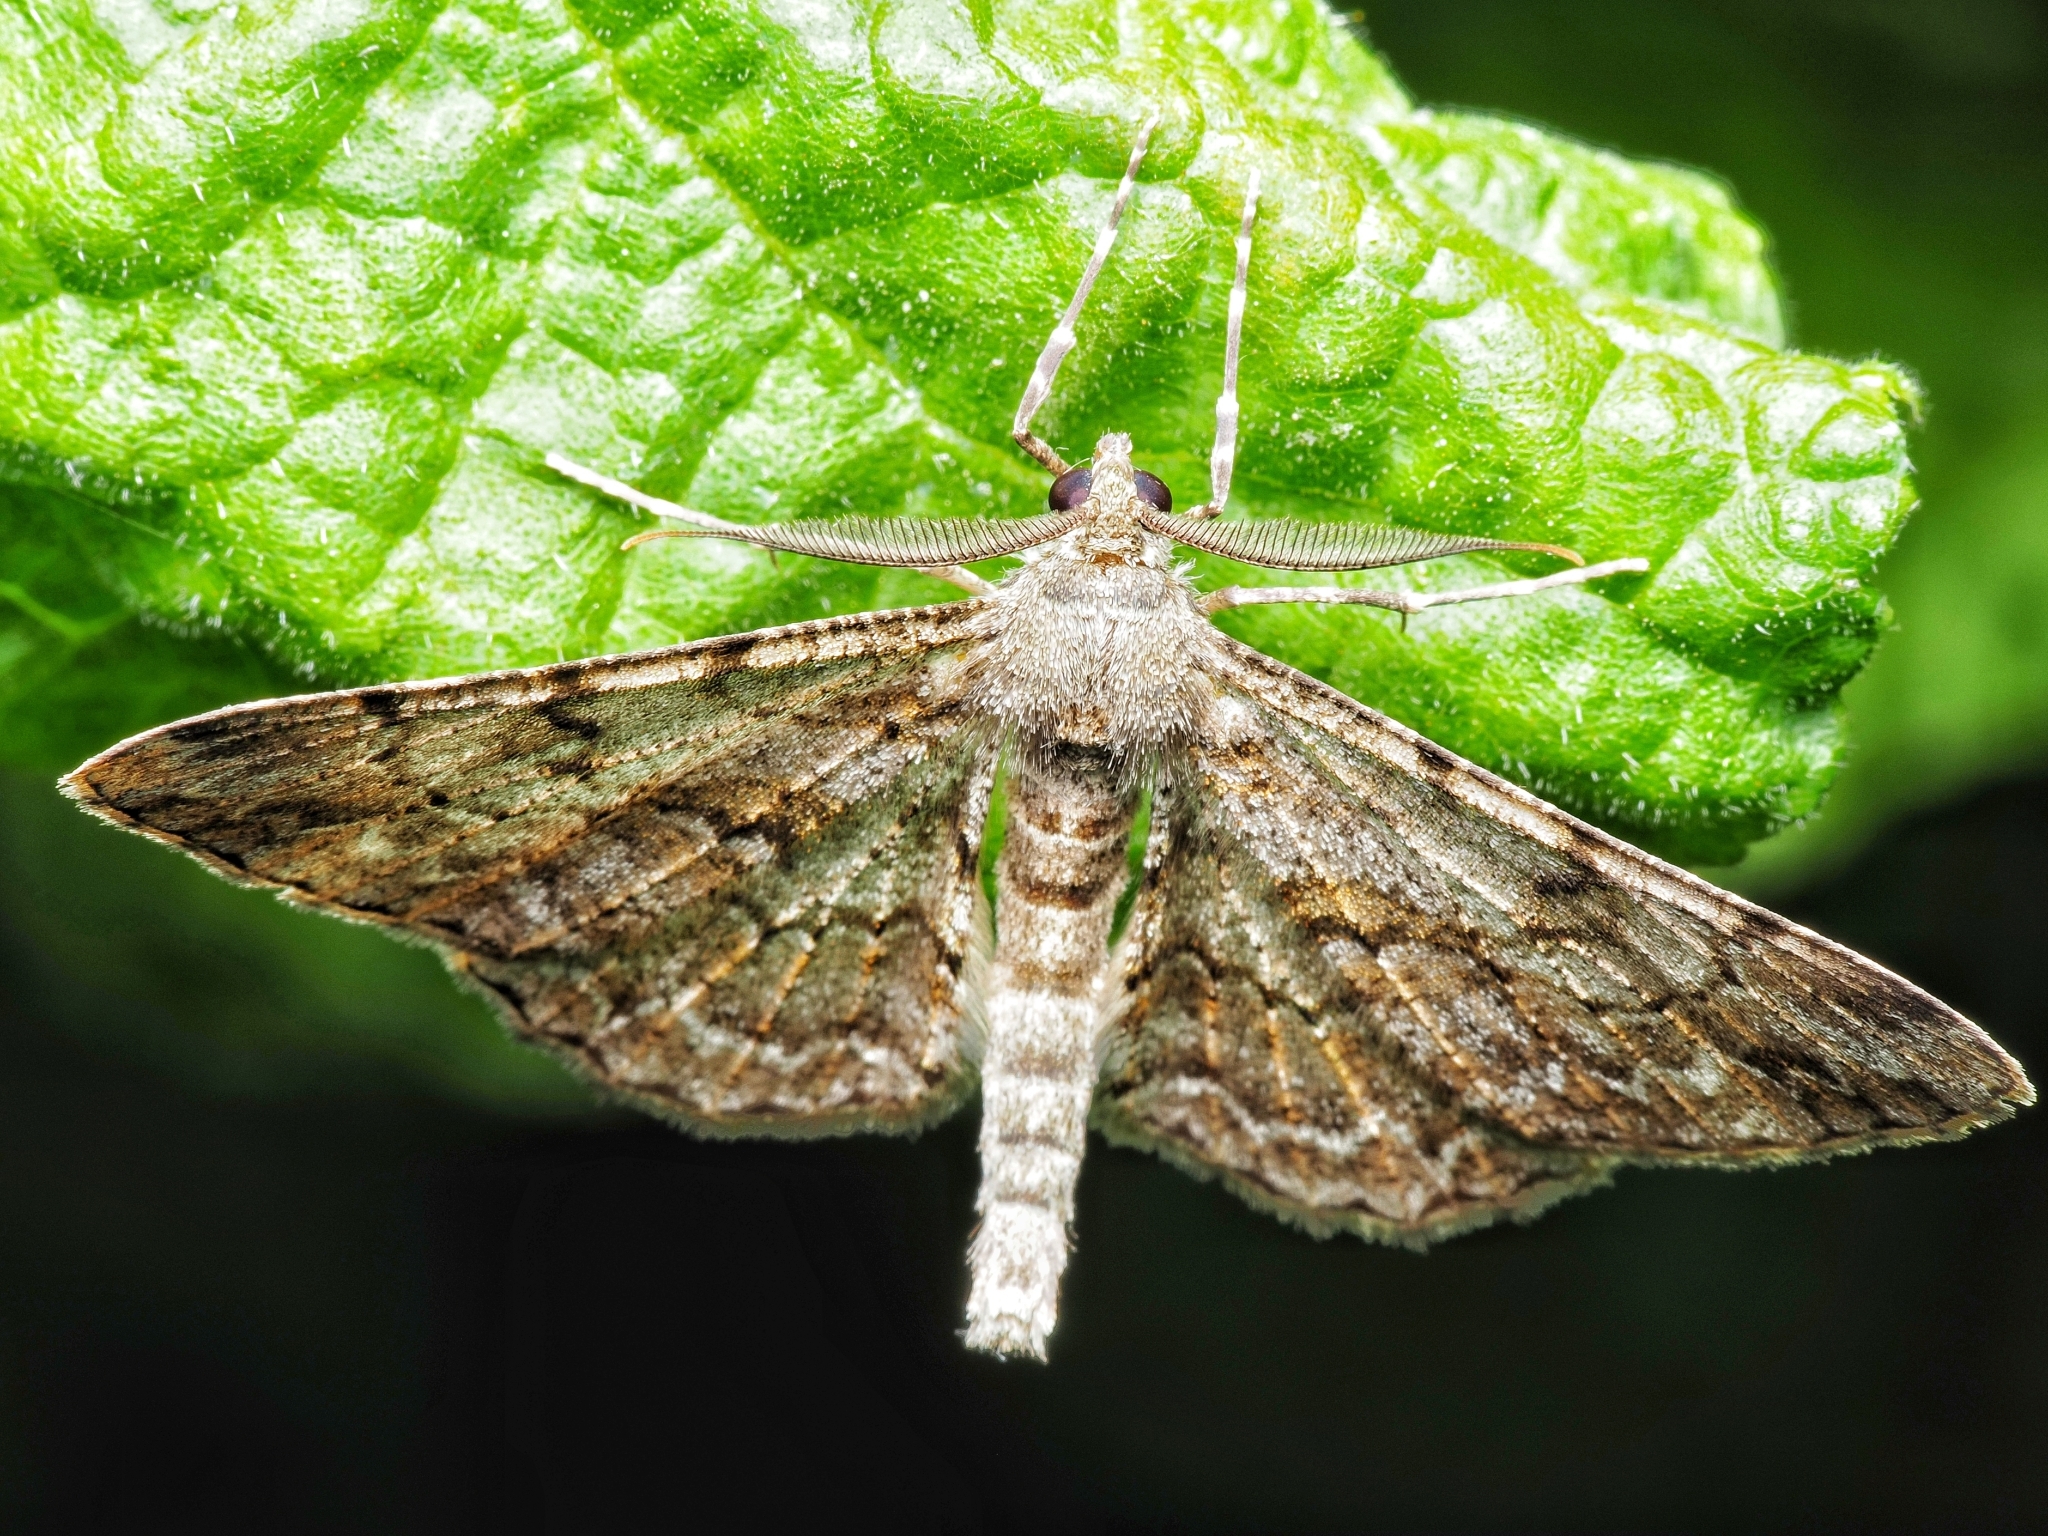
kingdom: Animalia
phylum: Arthropoda
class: Insecta
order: Lepidoptera
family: Geometridae
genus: Peribatodes
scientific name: Peribatodes rhomboidaria
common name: Willow beauty
